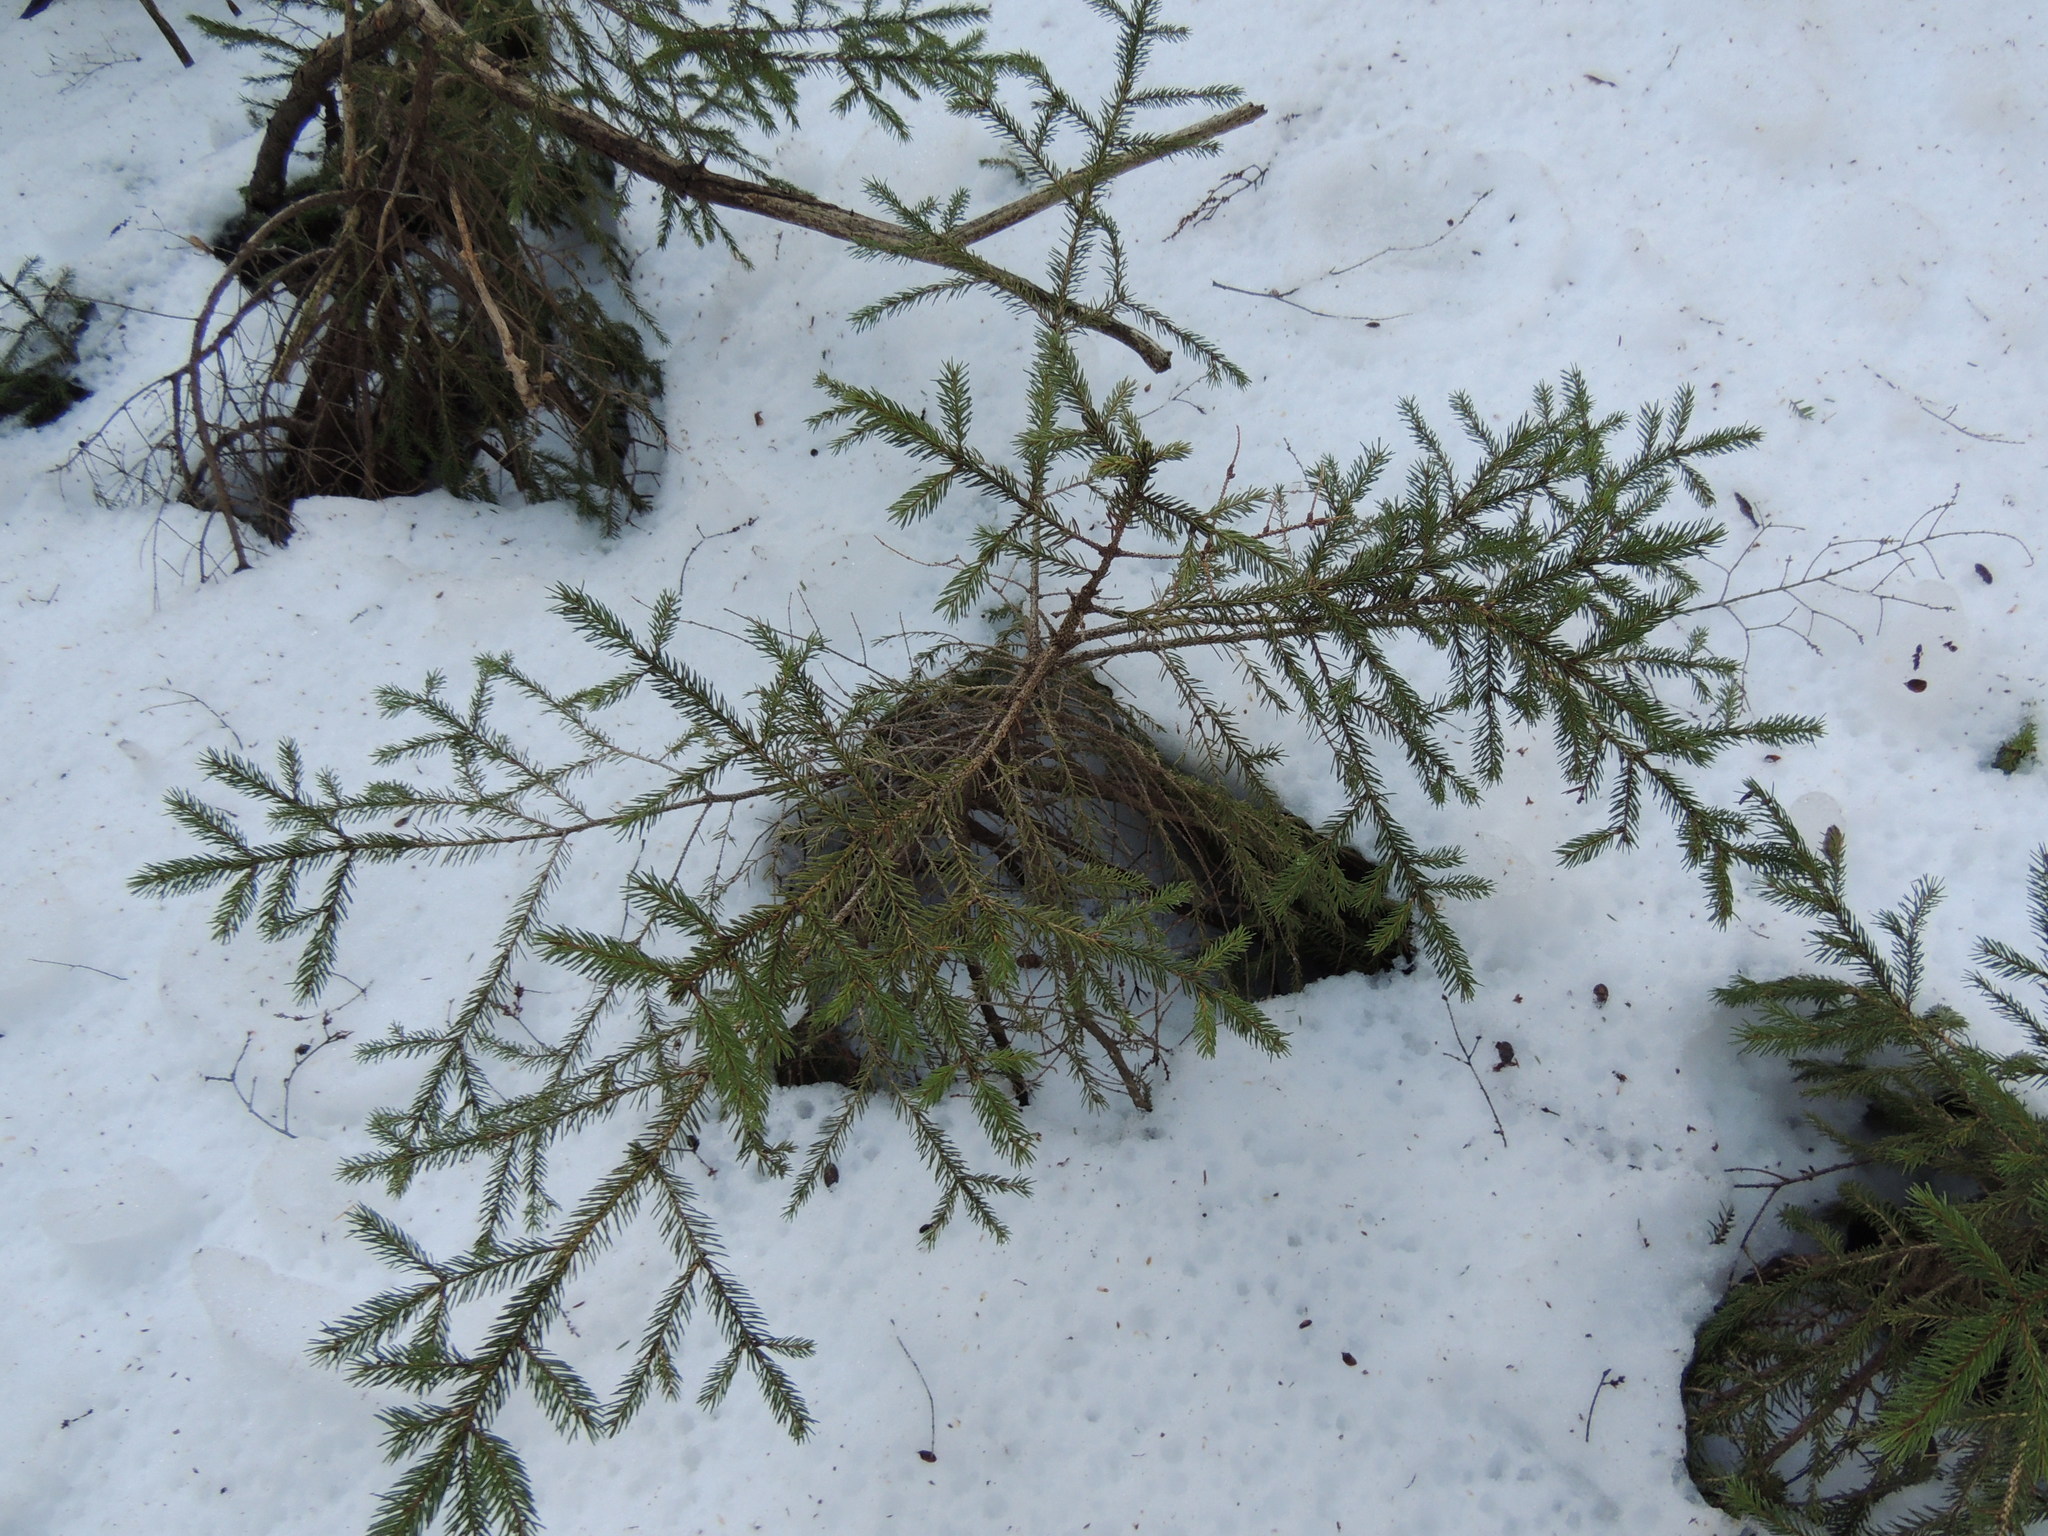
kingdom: Plantae
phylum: Tracheophyta
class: Pinopsida
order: Pinales
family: Pinaceae
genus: Picea
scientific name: Picea rubens
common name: Red spruce
